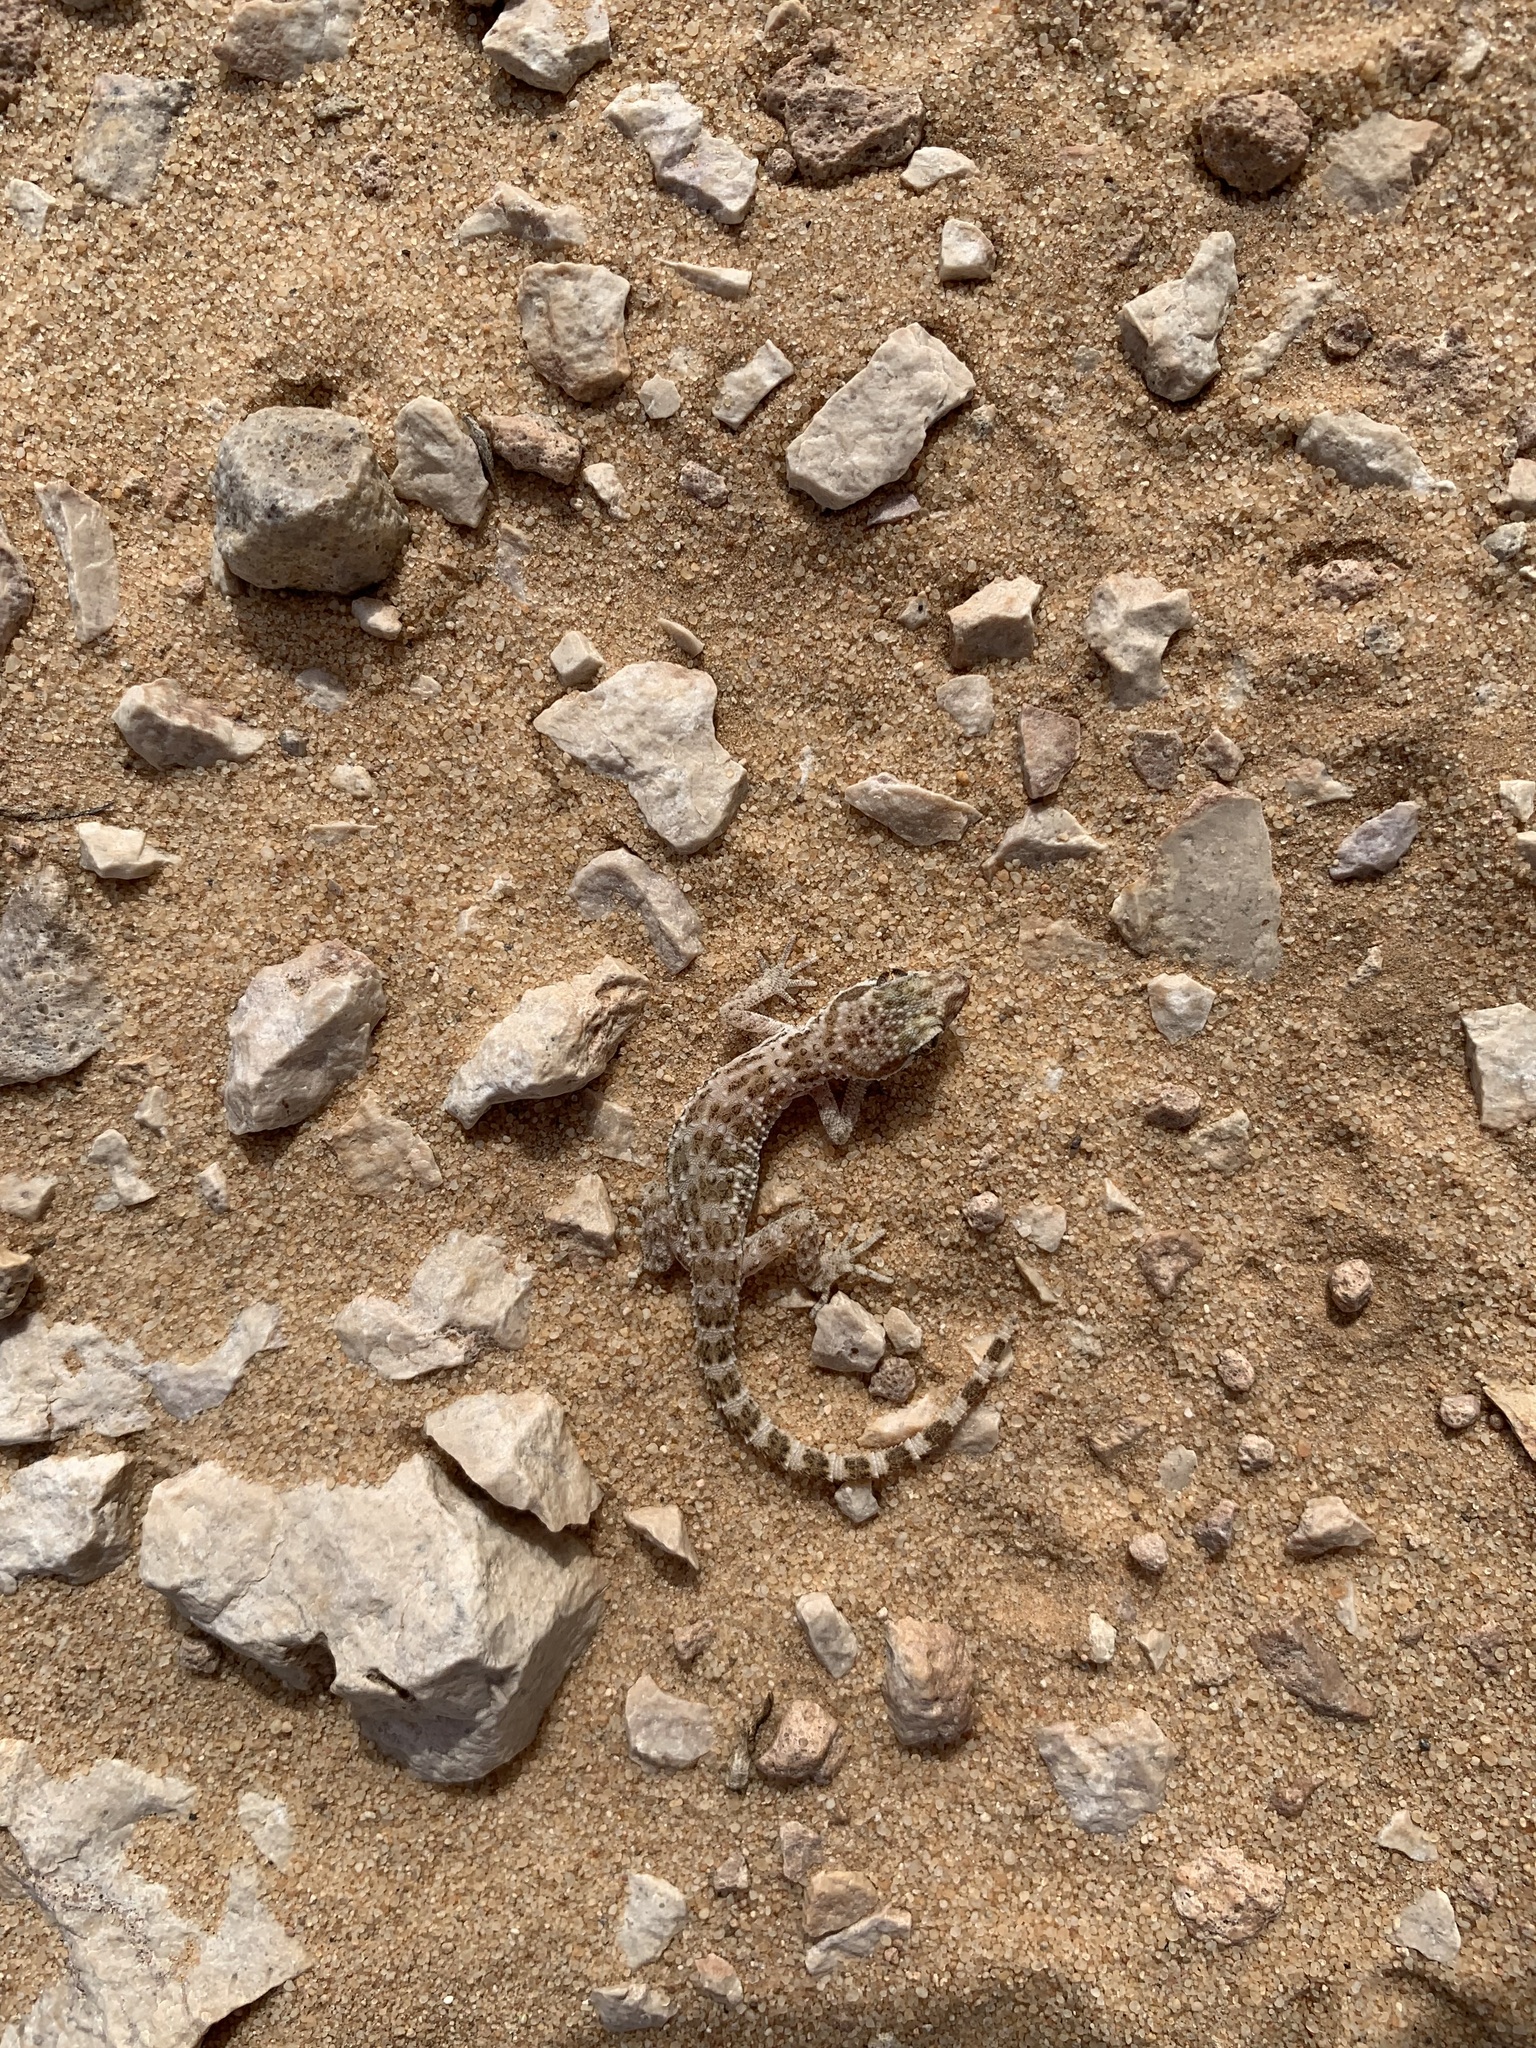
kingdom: Animalia
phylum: Chordata
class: Squamata
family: Gekkonidae
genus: Bunopus
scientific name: Bunopus tuberculatus
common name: Southern tuberculated gecko
